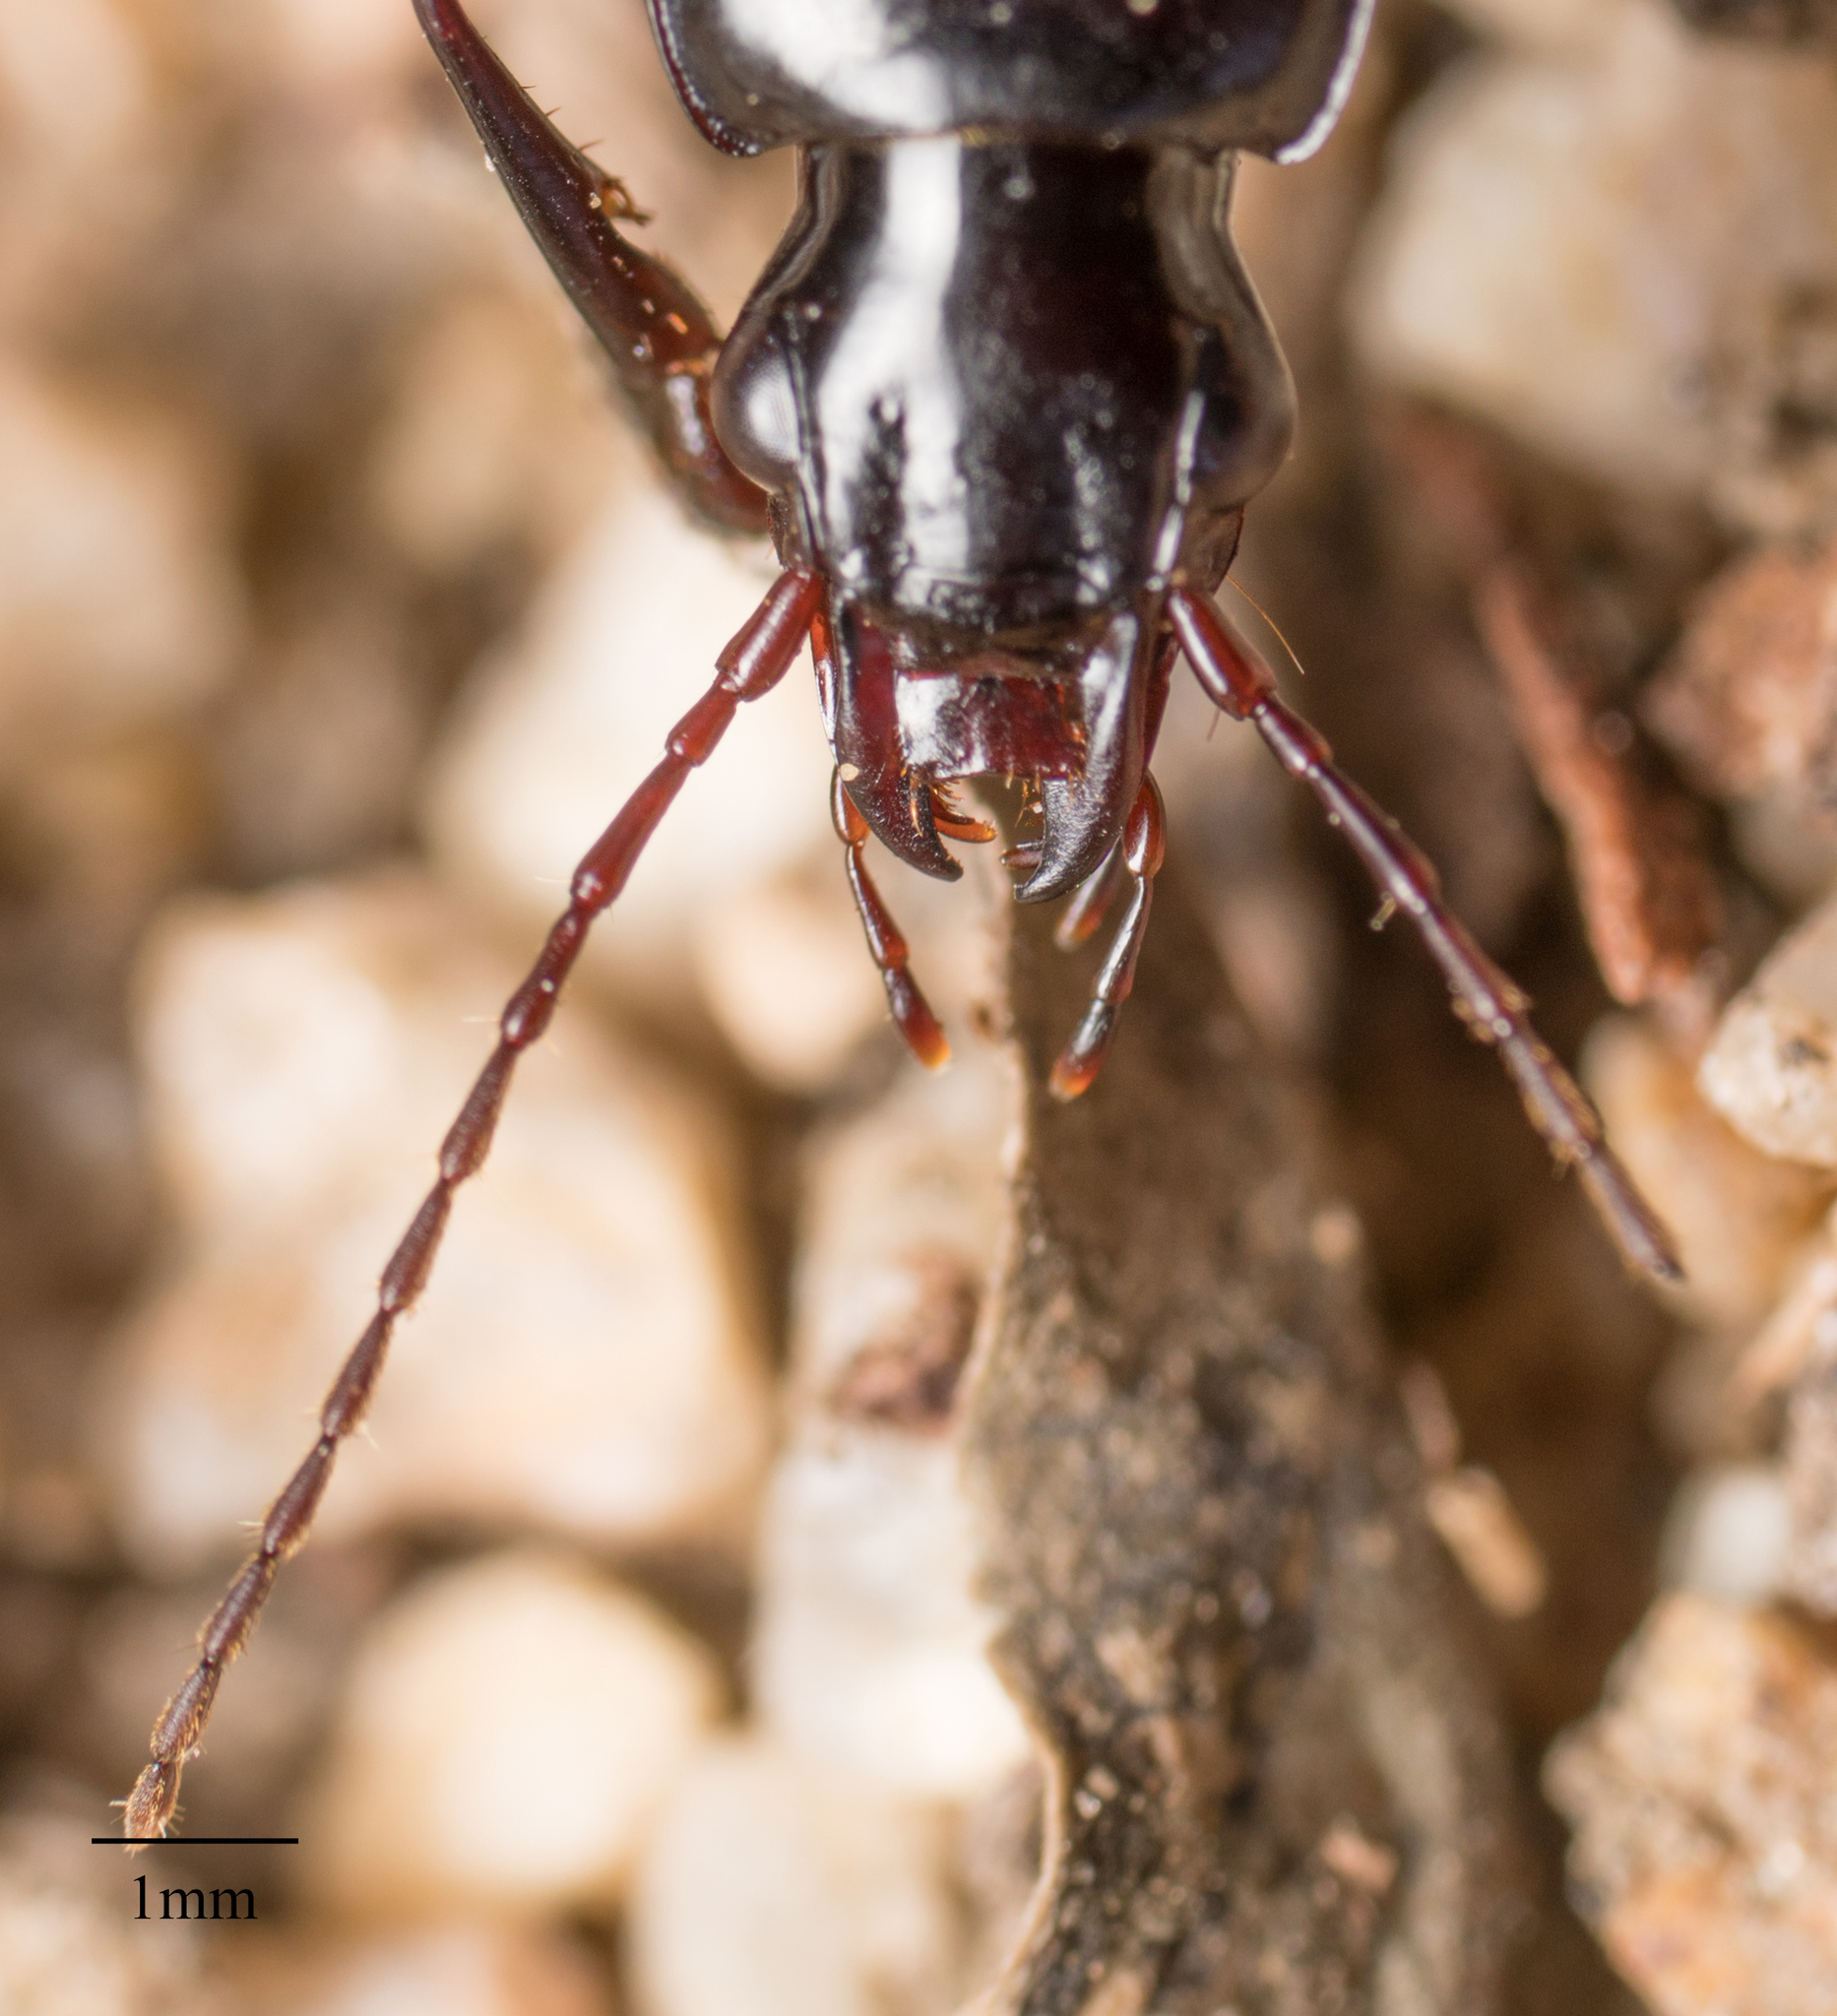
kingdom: Animalia
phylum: Arthropoda
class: Insecta
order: Coleoptera
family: Carabidae
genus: Laemostenus
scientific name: Laemostenus complanatus
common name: Cosmopolitan ground beetle
